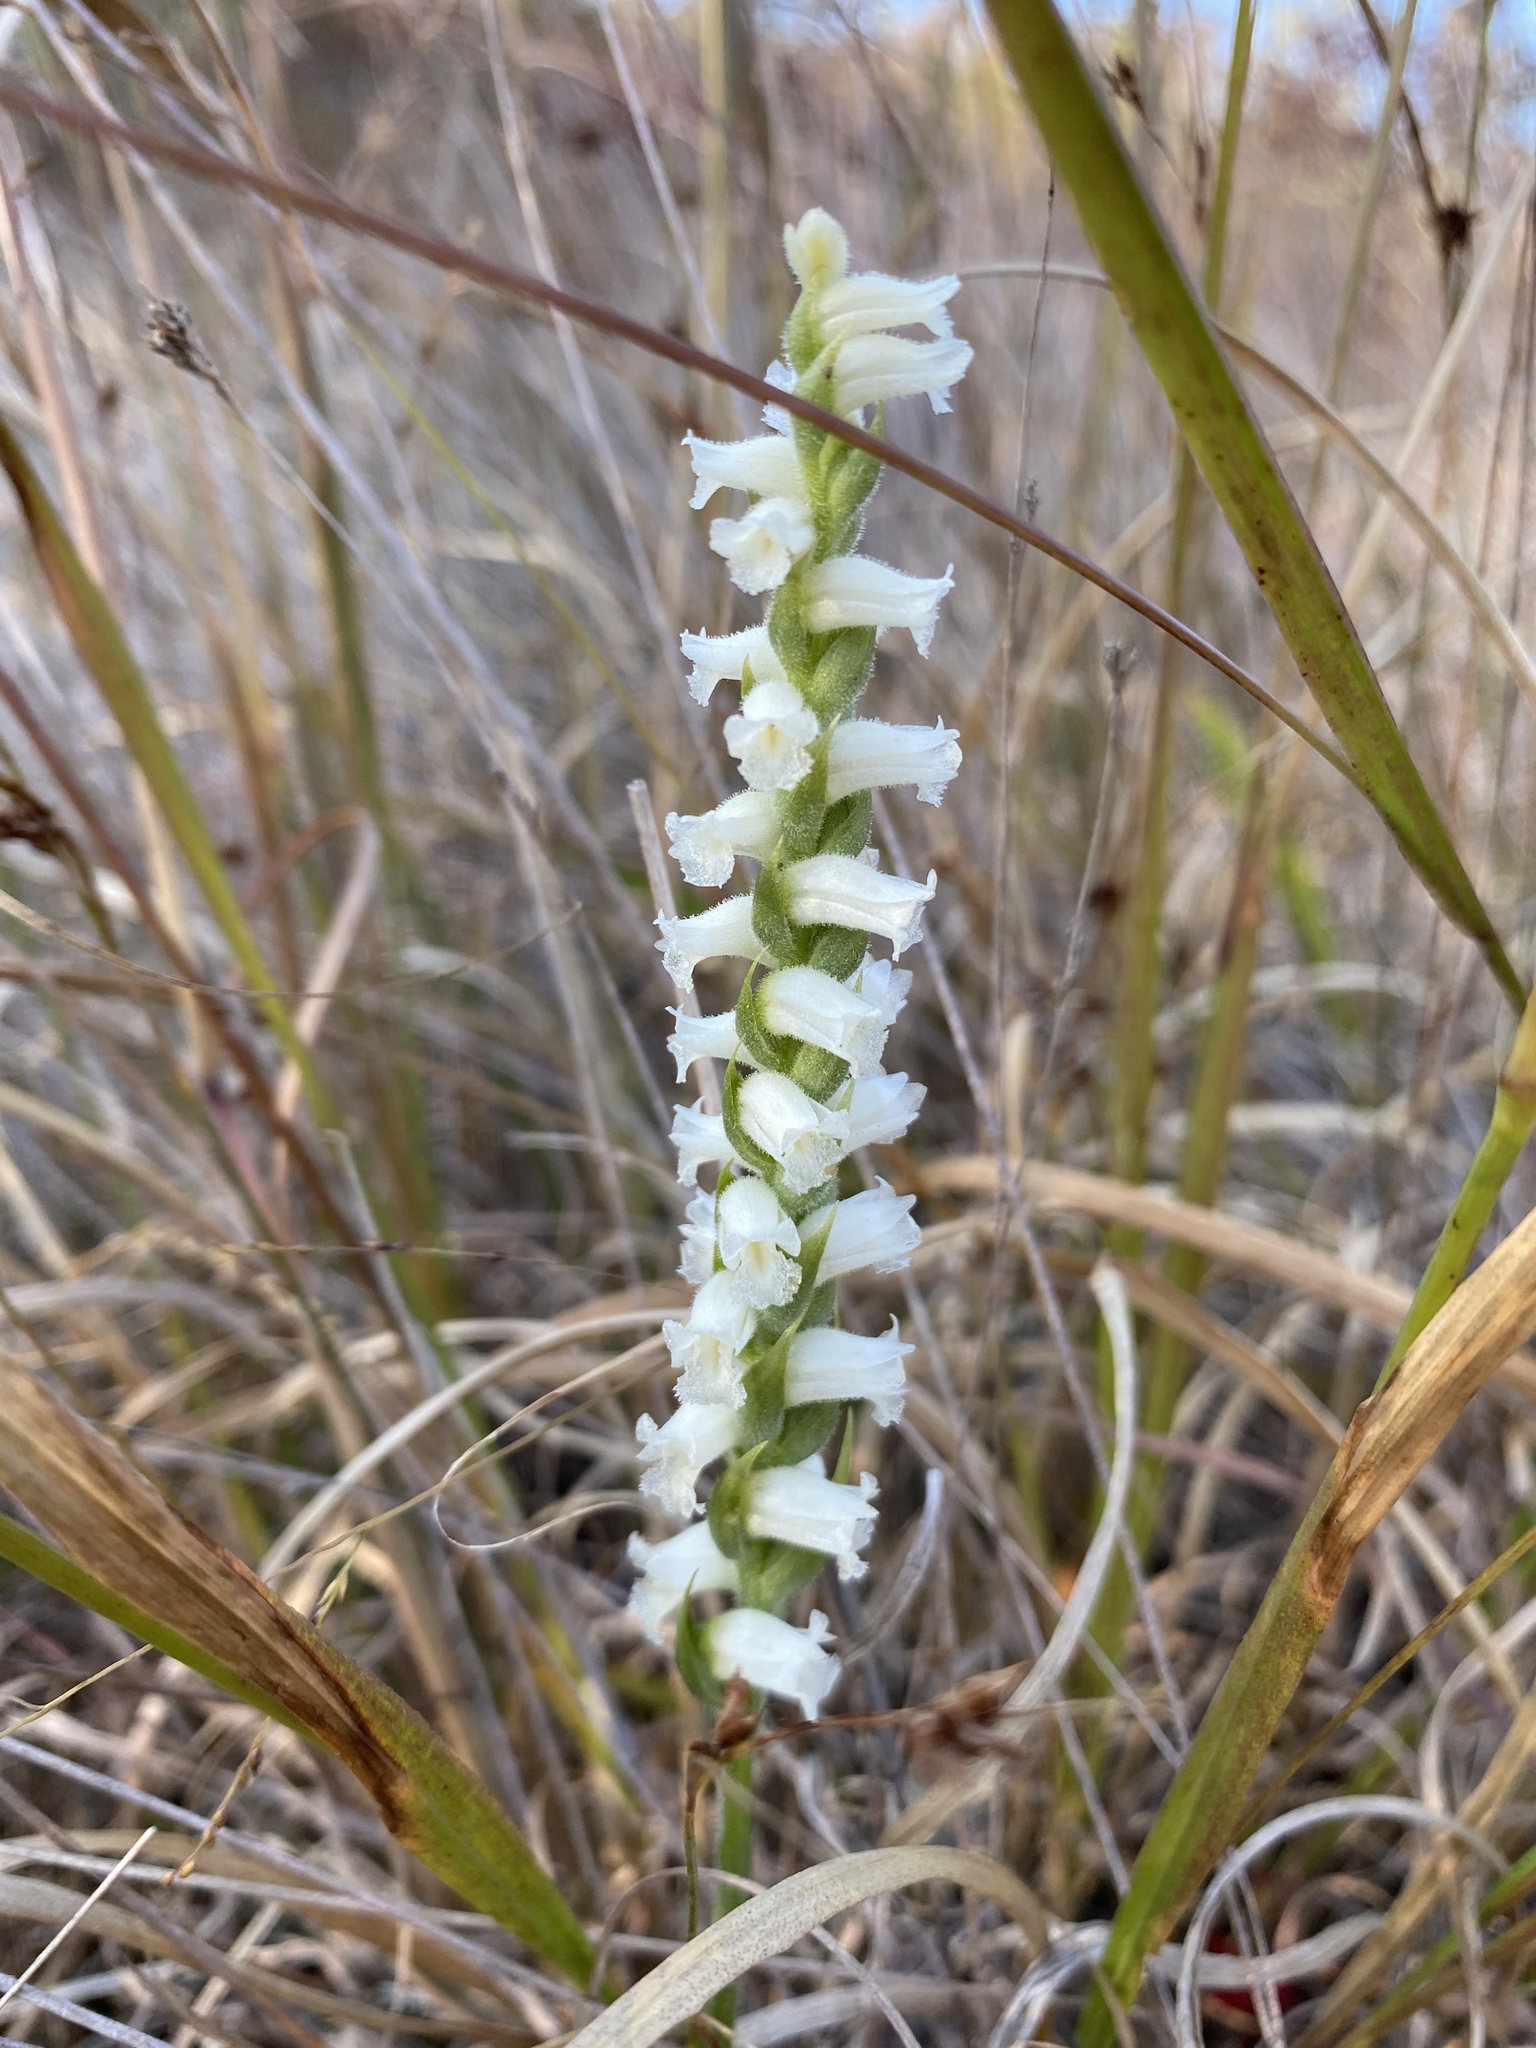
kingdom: Plantae
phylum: Tracheophyta
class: Liliopsida
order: Asparagales
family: Orchidaceae
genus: Spiranthes
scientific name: Spiranthes ochroleuca
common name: Yellow ladies'-tresses
